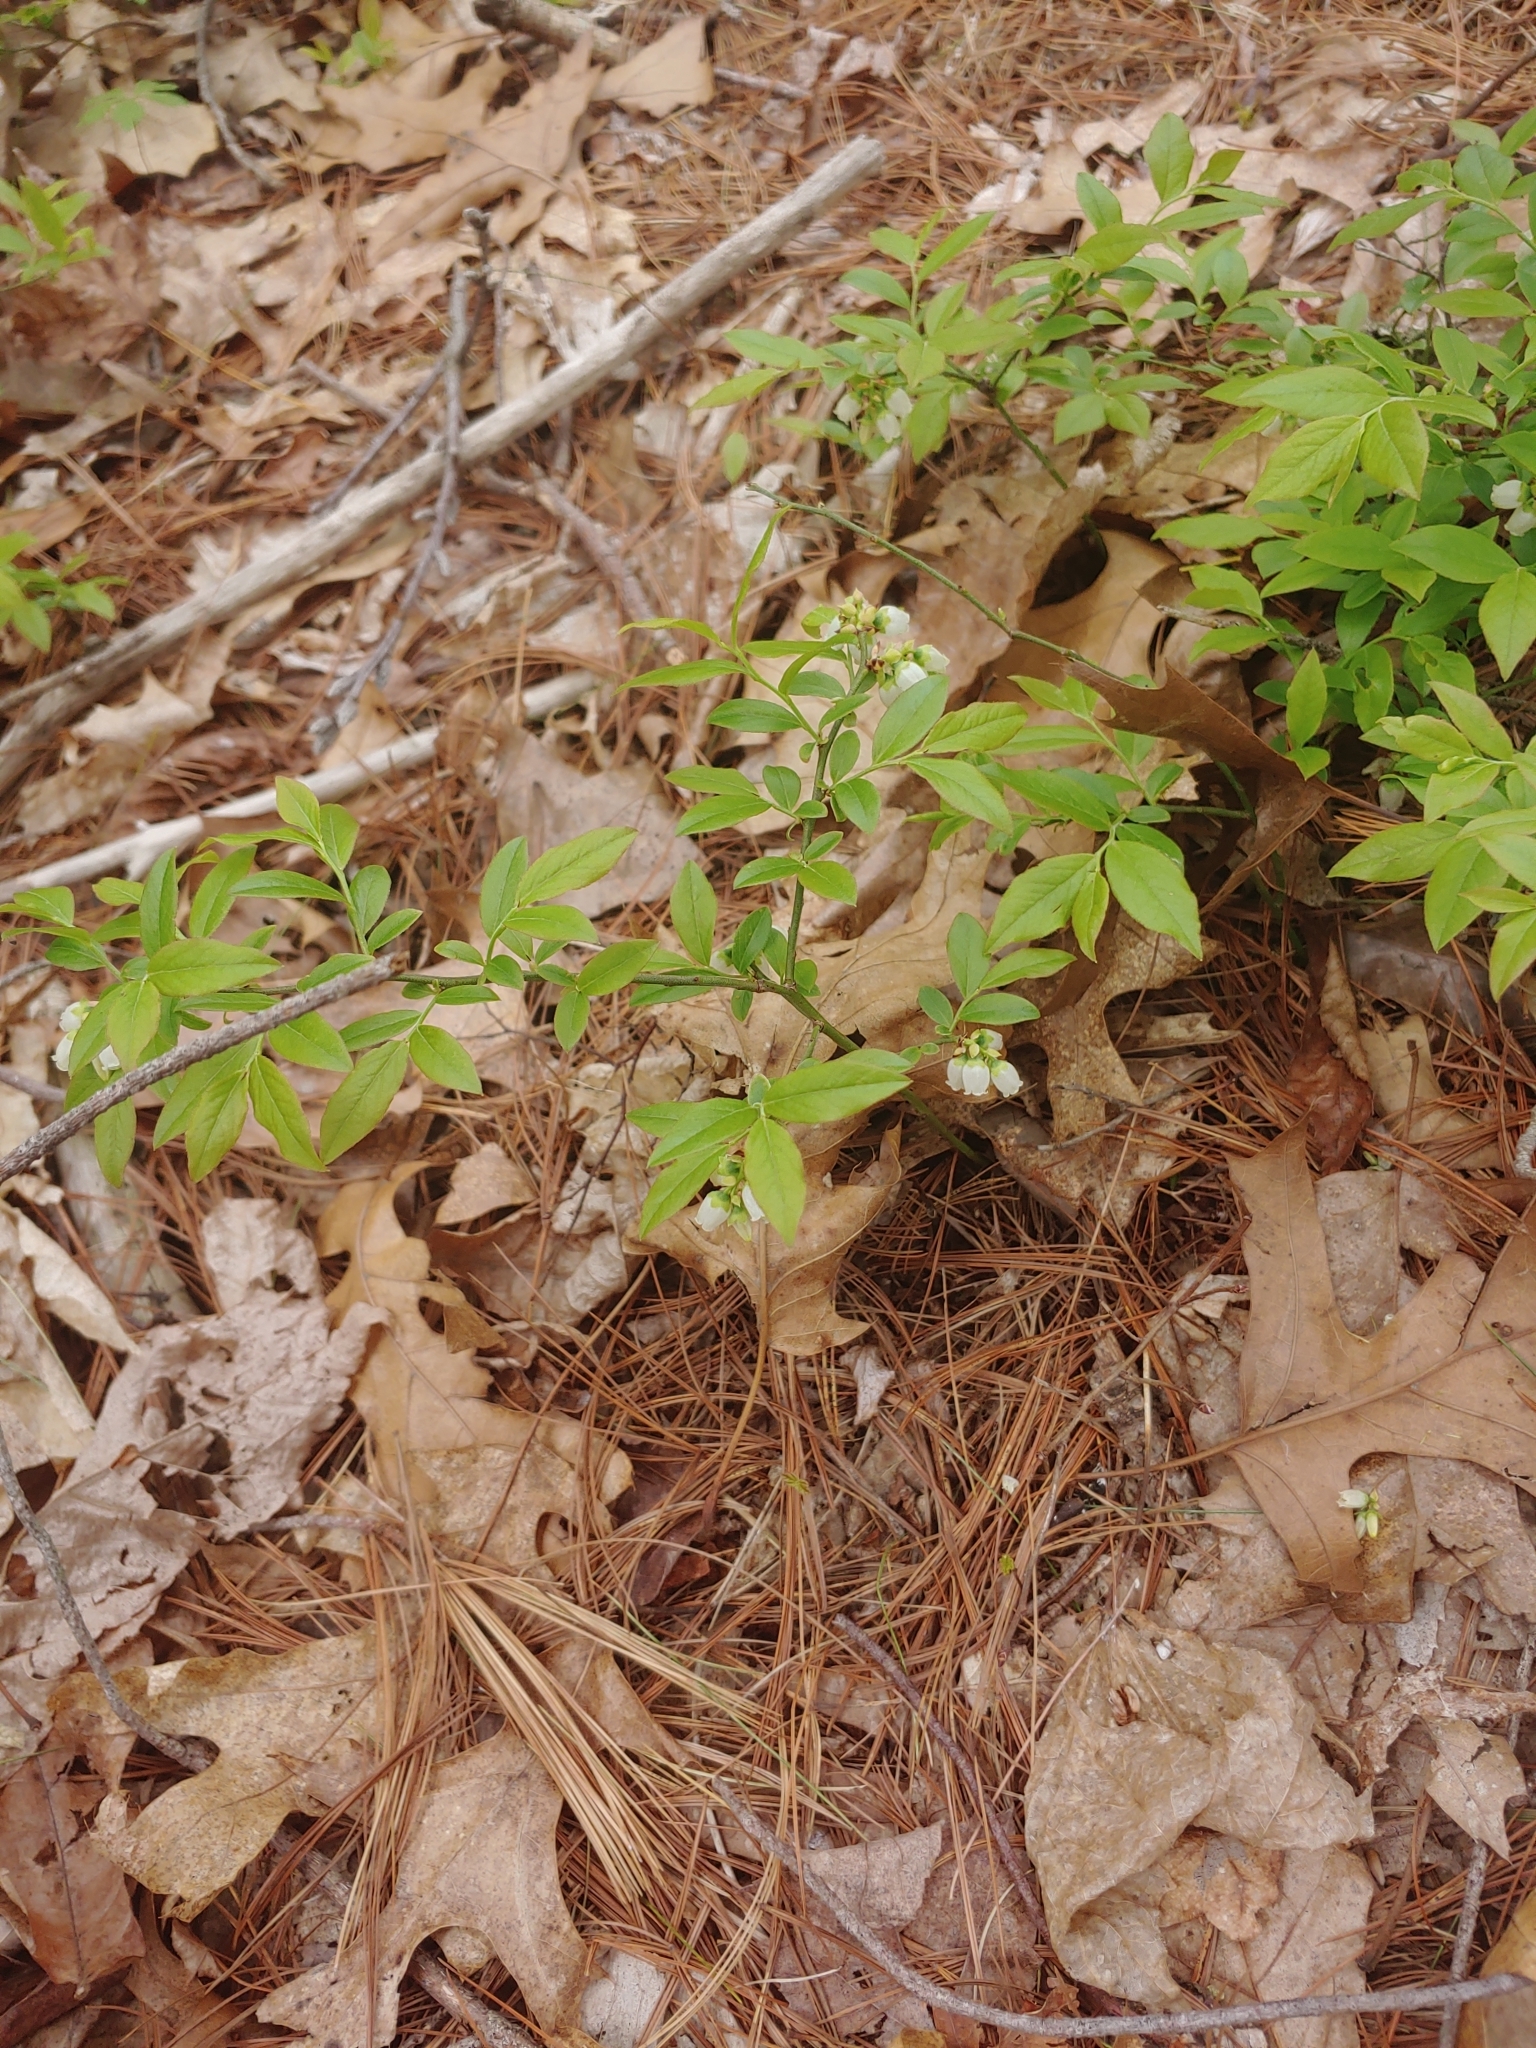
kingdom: Plantae
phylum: Tracheophyta
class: Magnoliopsida
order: Ericales
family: Ericaceae
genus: Vaccinium
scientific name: Vaccinium angustifolium
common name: Early lowbush blueberry
